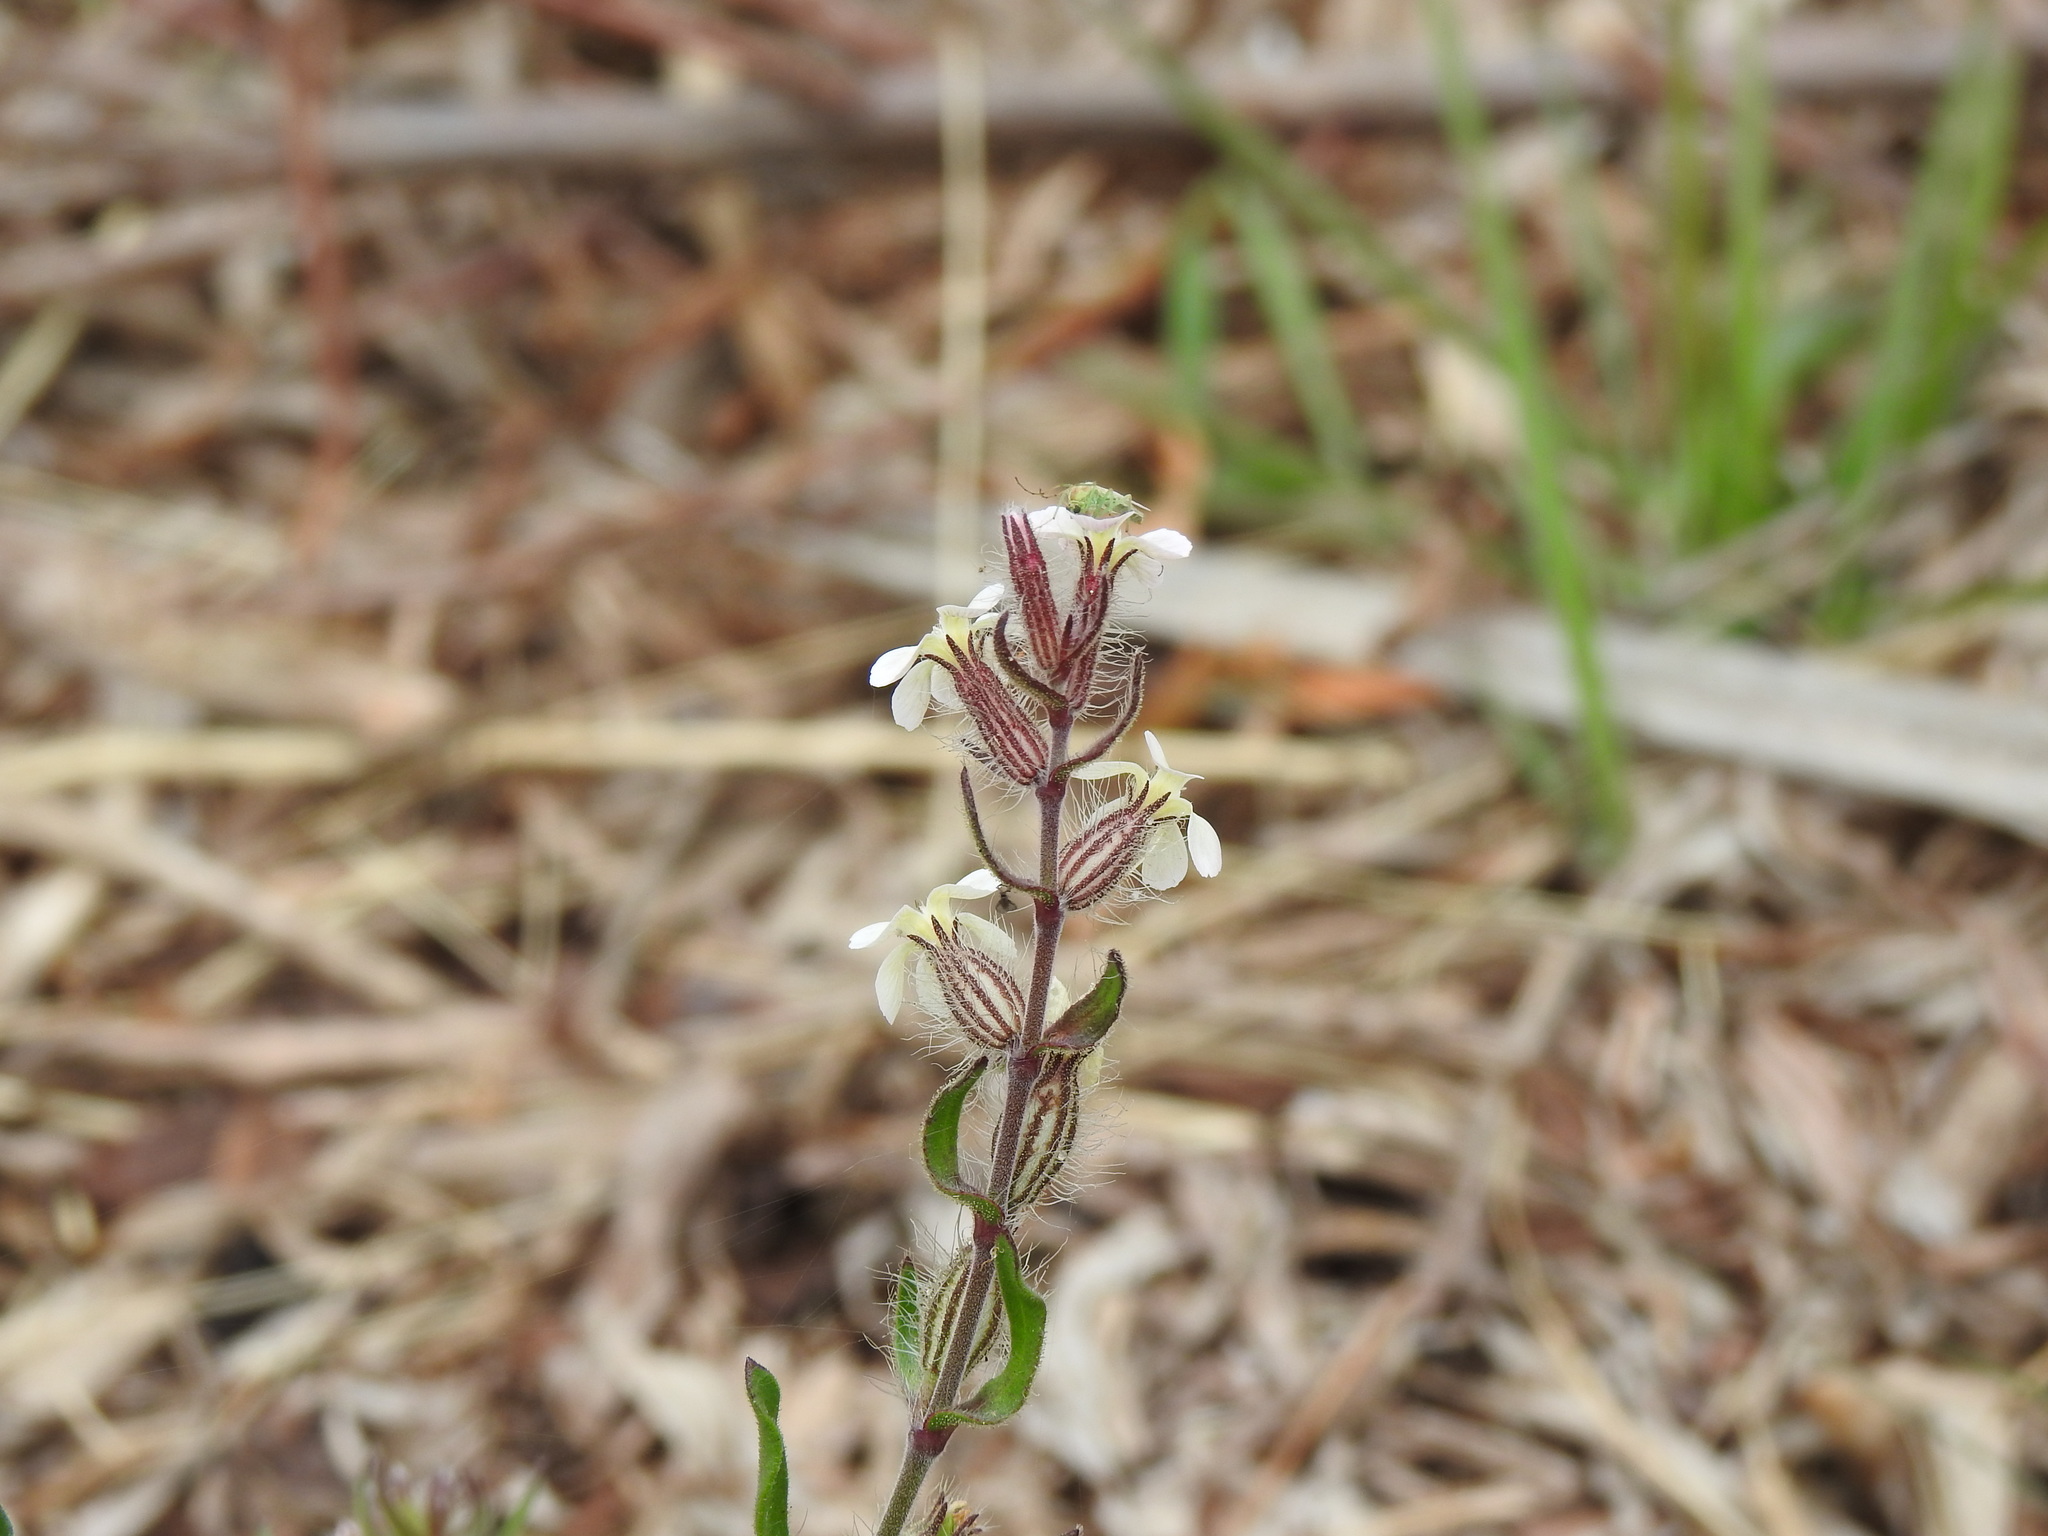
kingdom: Plantae
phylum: Tracheophyta
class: Magnoliopsida
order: Caryophyllales
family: Caryophyllaceae
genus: Silene
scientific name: Silene gallica
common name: Small-flowered catchfly
